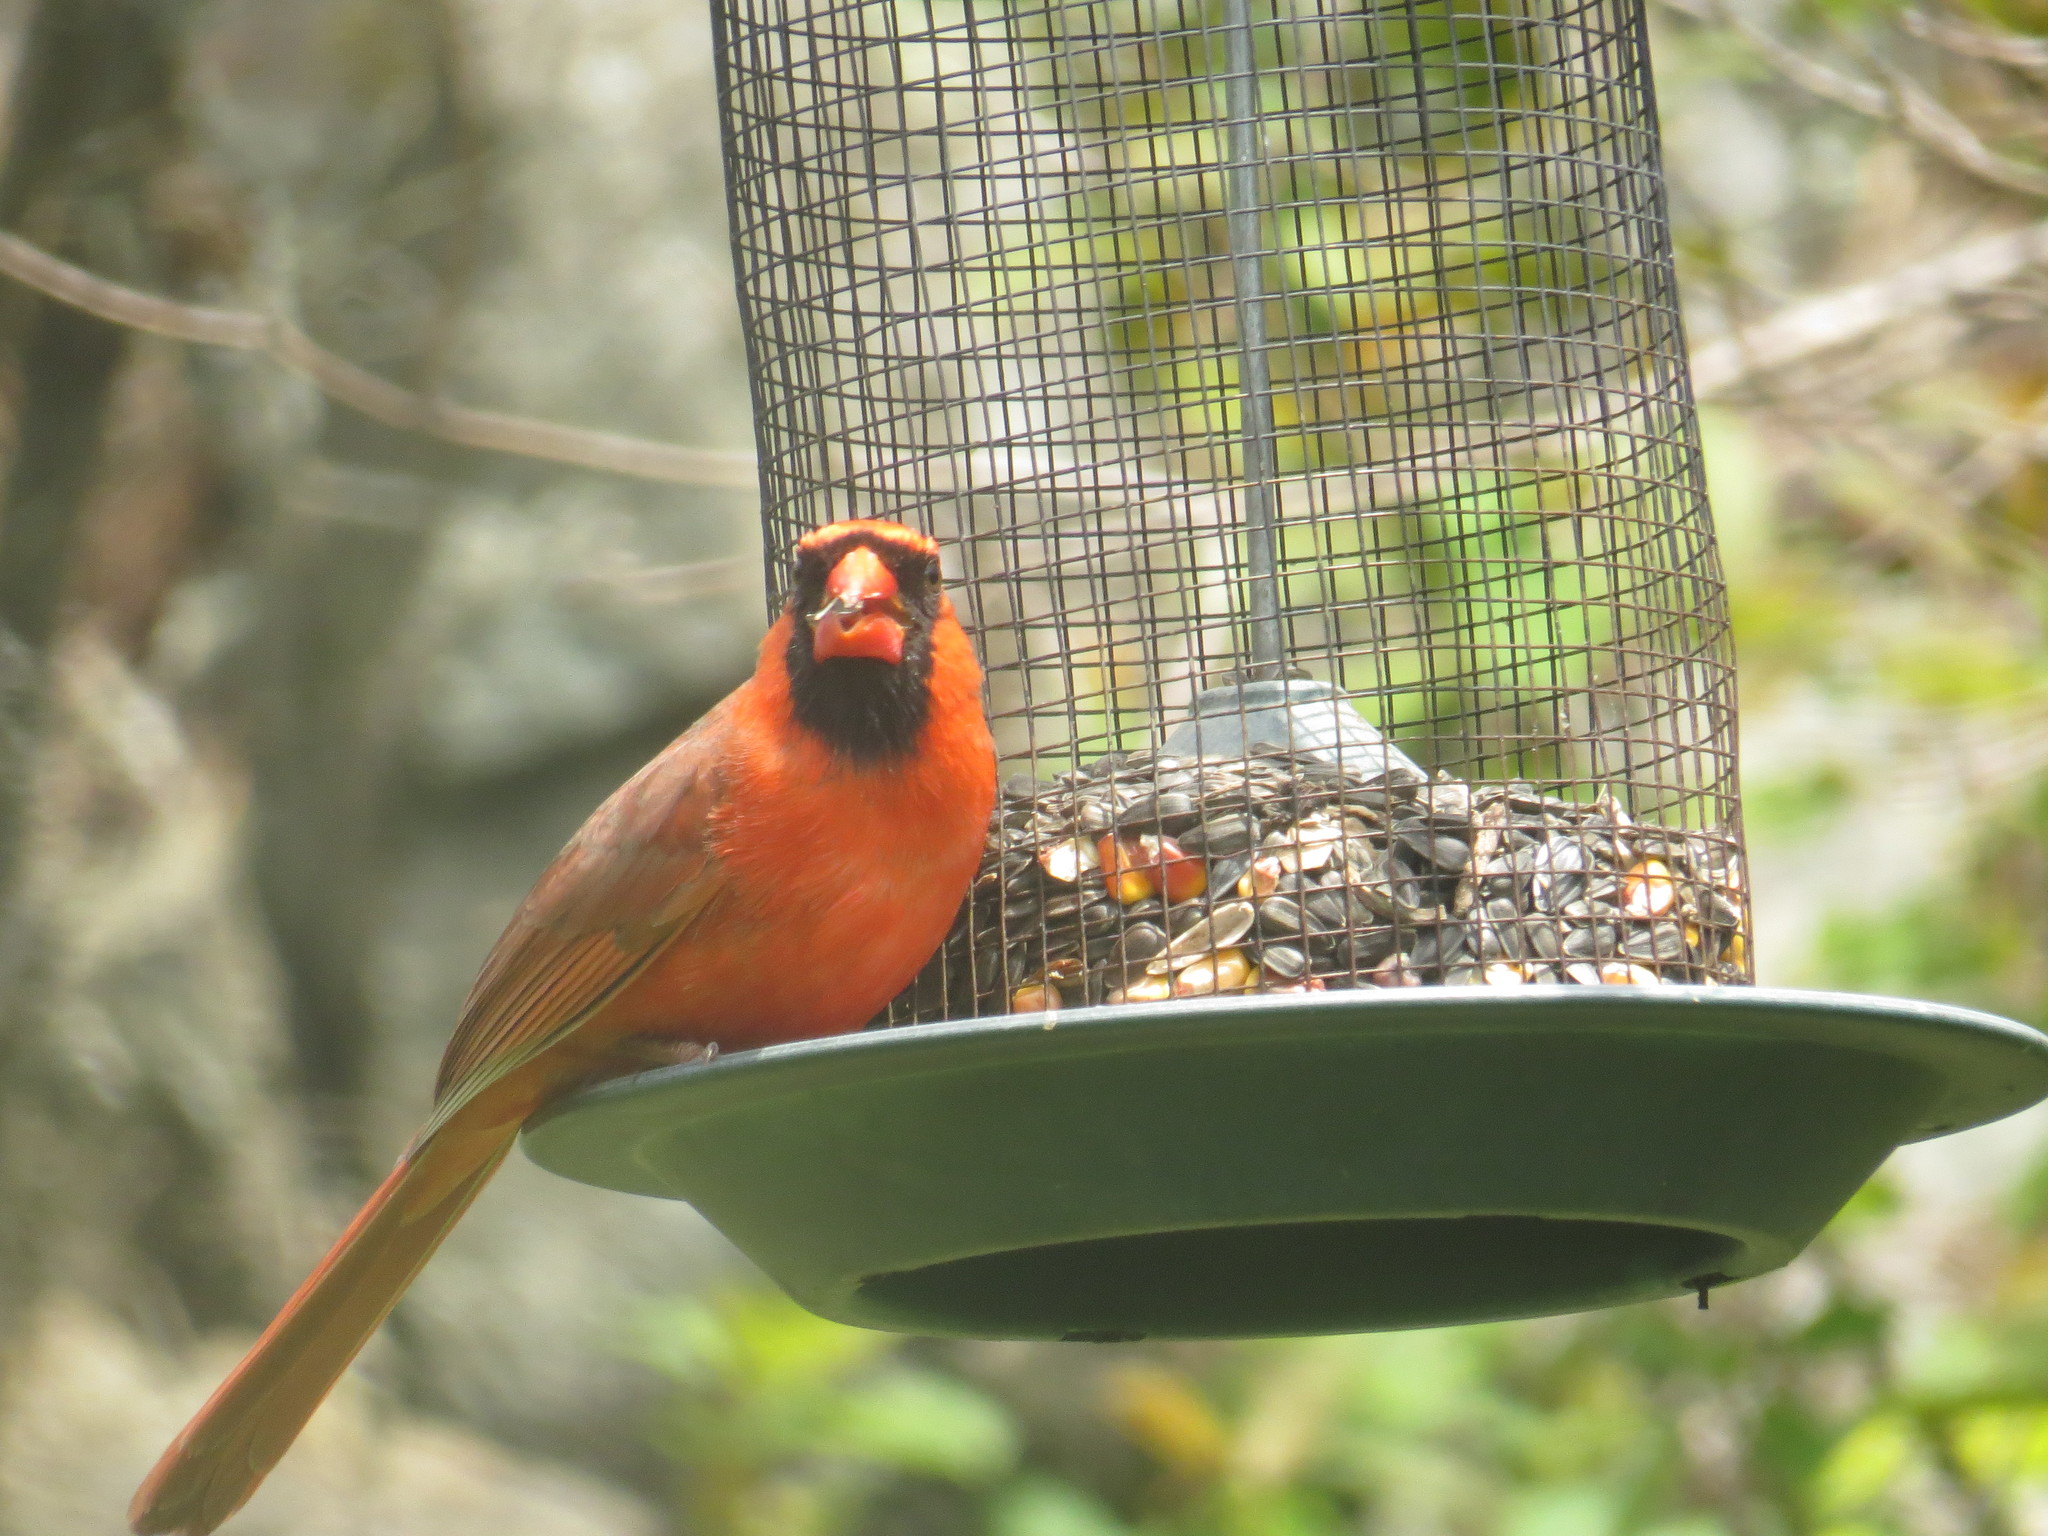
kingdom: Animalia
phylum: Chordata
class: Aves
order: Passeriformes
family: Cardinalidae
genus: Cardinalis
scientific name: Cardinalis cardinalis
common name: Northern cardinal
